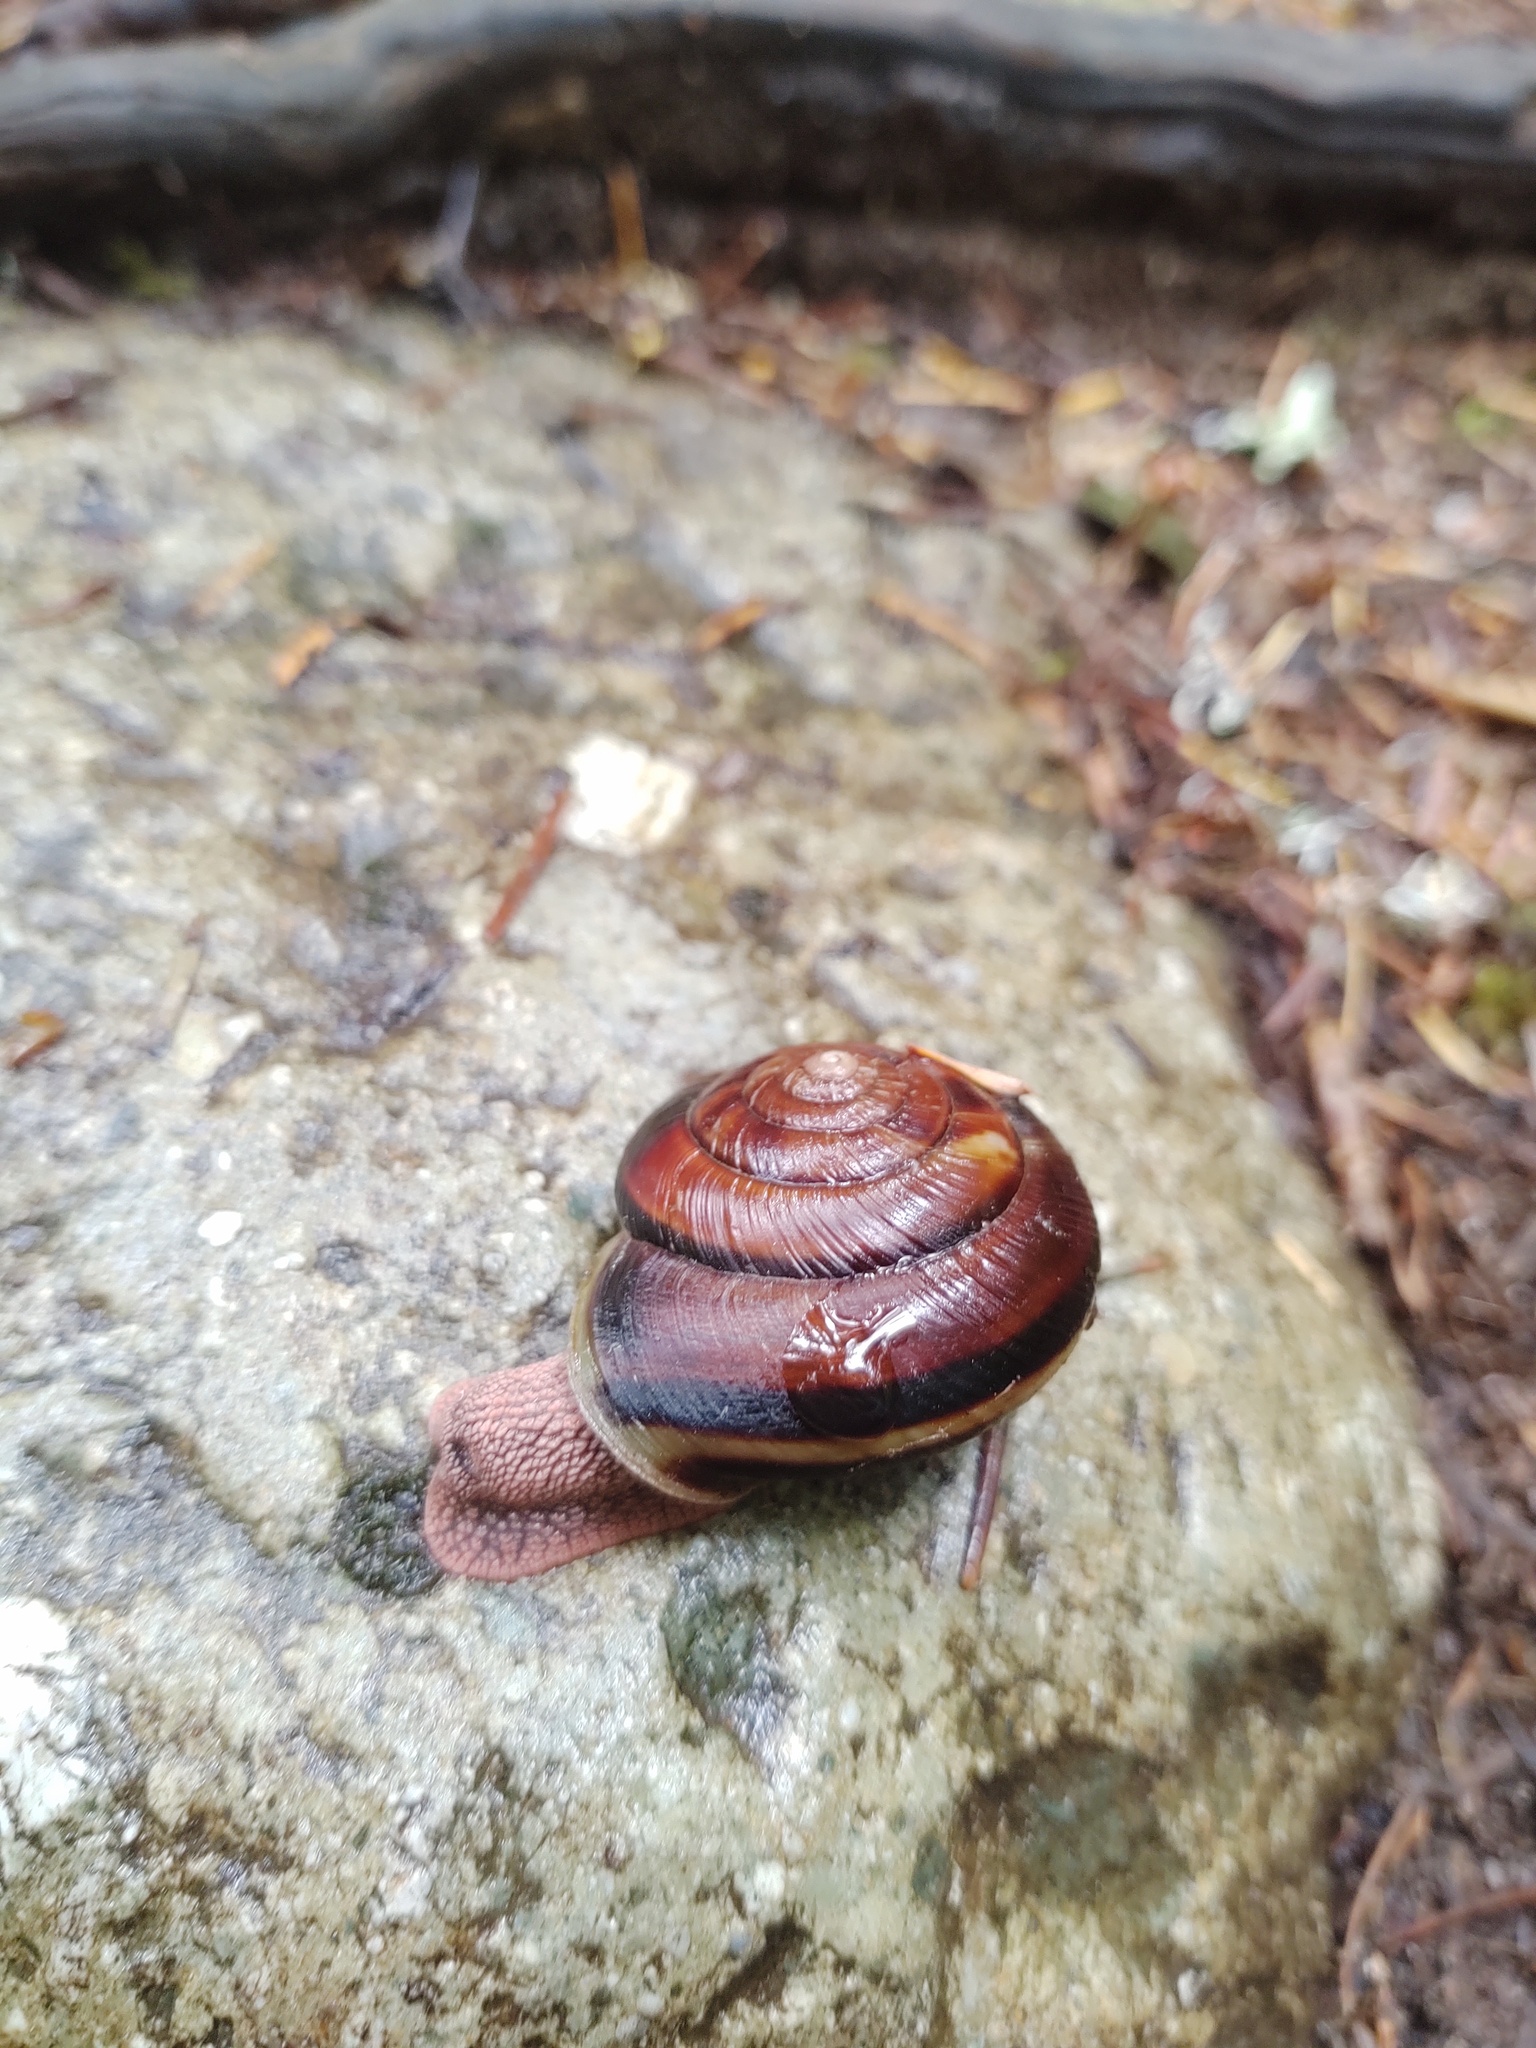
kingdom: Animalia
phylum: Mollusca
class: Gastropoda
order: Stylommatophora
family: Xanthonychidae
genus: Monadenia
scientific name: Monadenia fidelis
